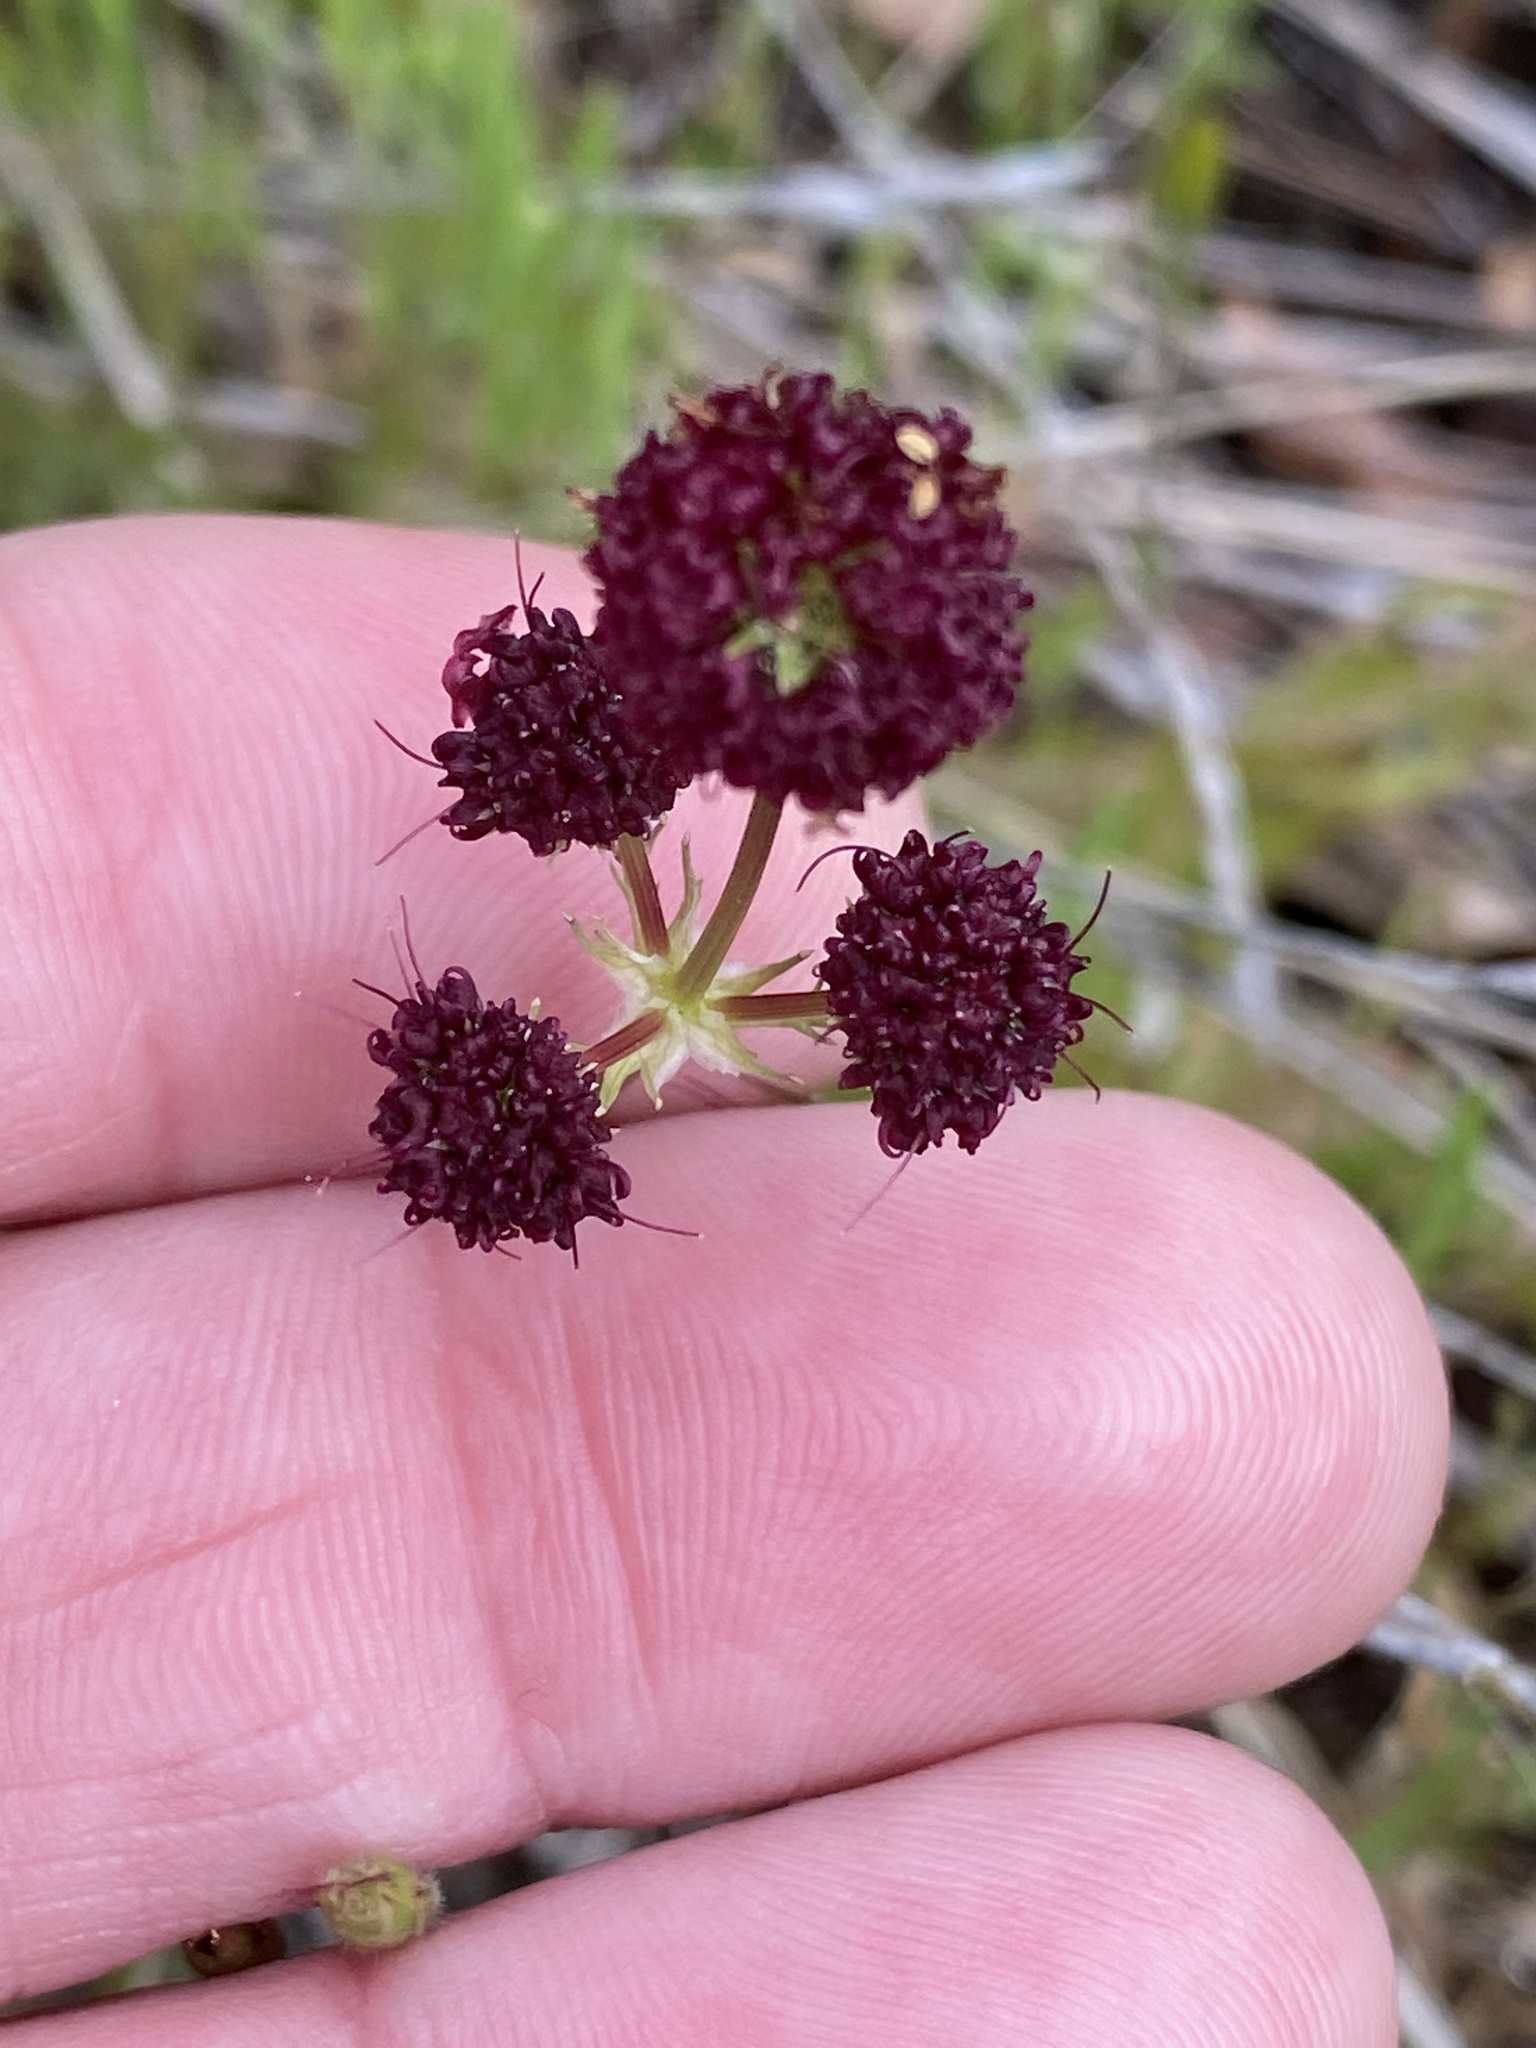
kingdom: Plantae
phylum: Tracheophyta
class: Magnoliopsida
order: Apiales
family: Apiaceae
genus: Sanicula
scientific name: Sanicula bipinnatifida
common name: Shoe-buttons
